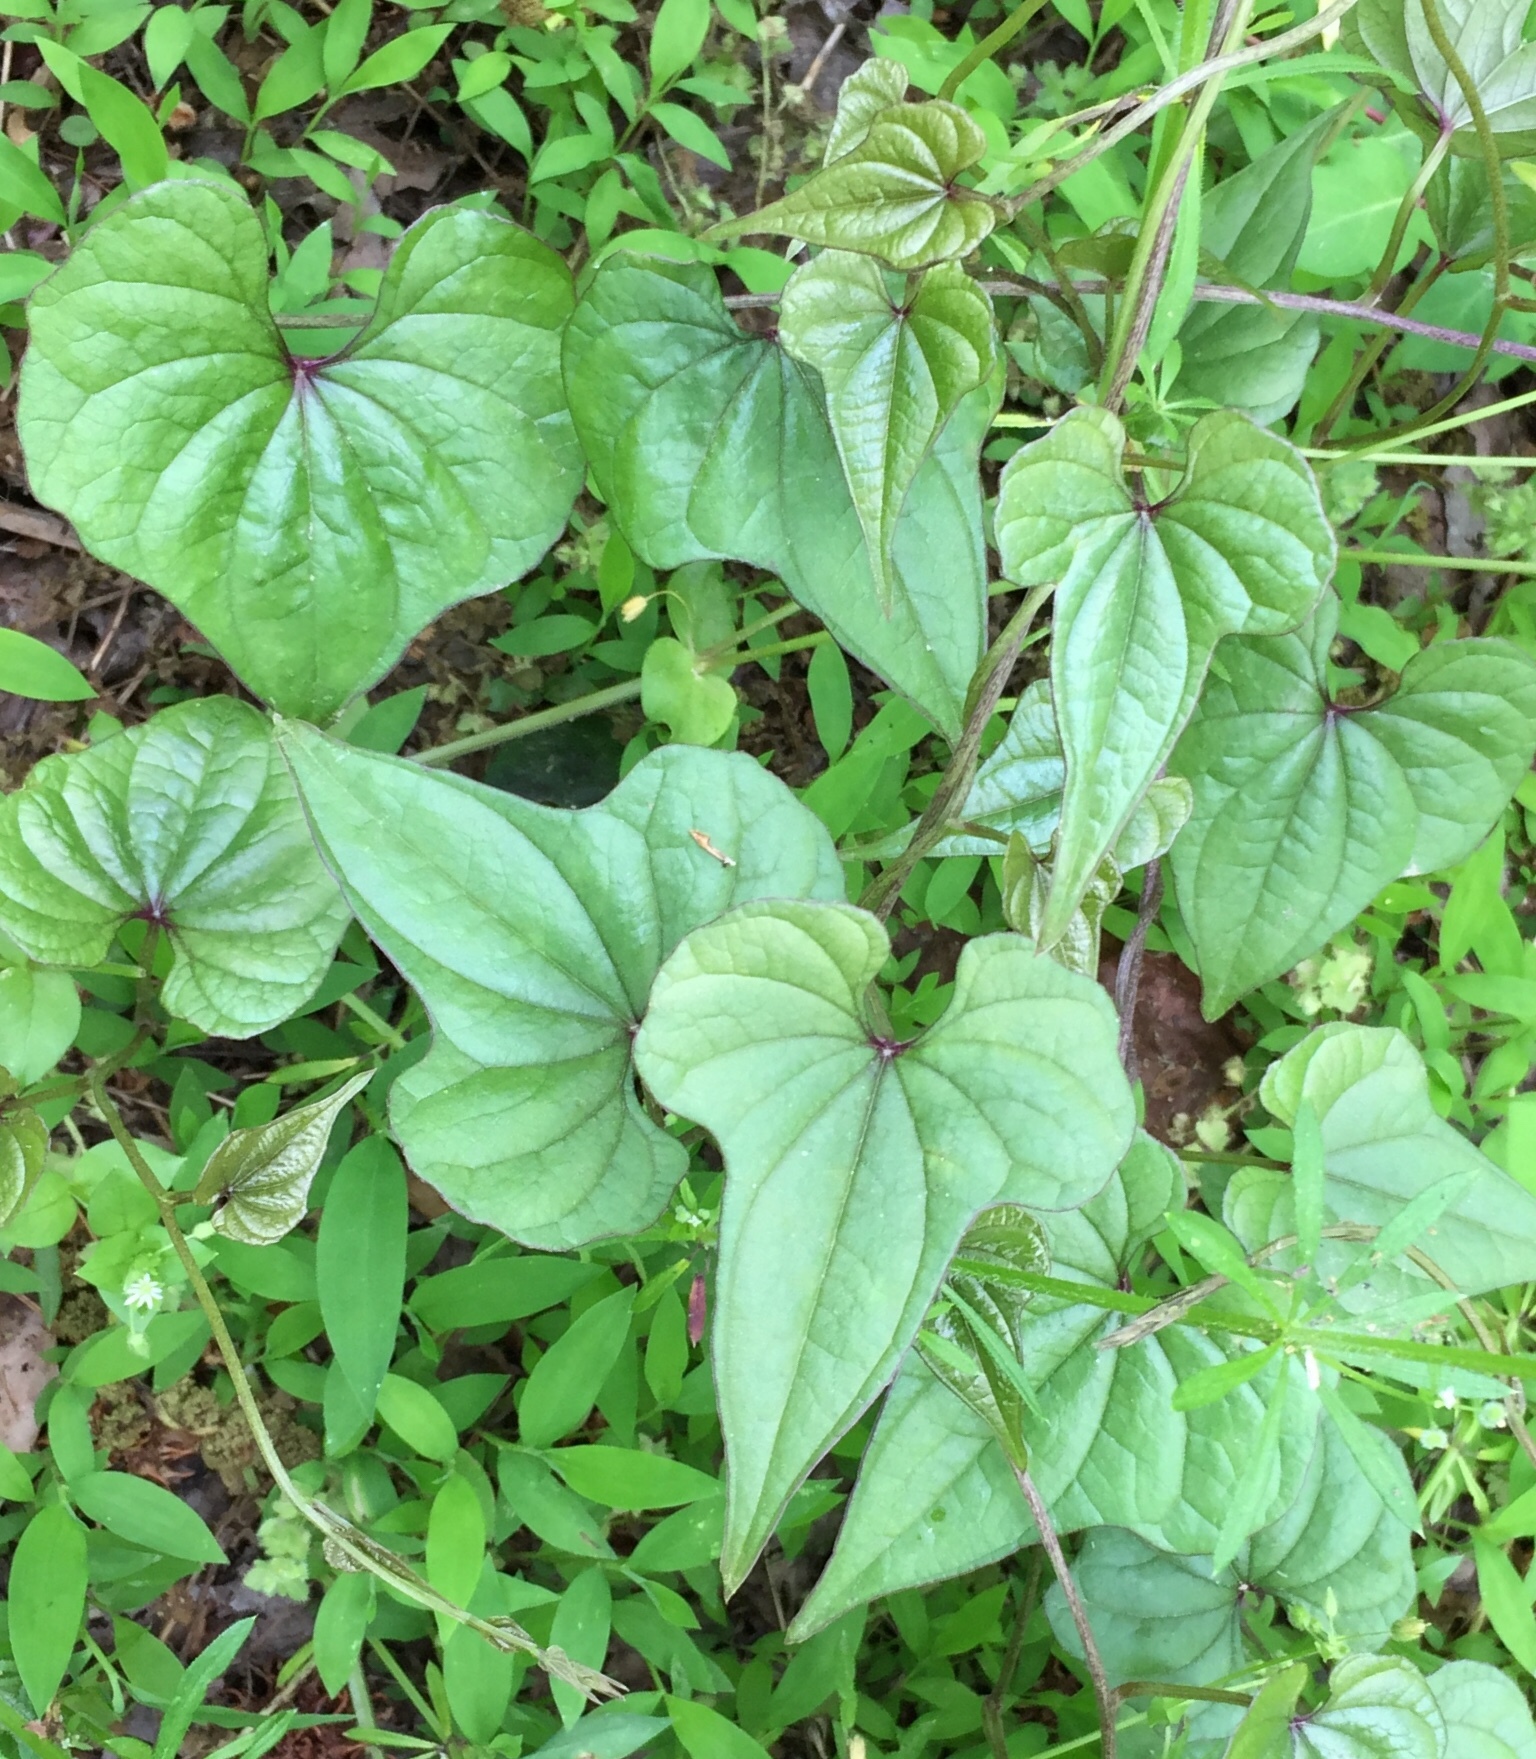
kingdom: Plantae
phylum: Tracheophyta
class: Liliopsida
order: Dioscoreales
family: Dioscoreaceae
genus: Dioscorea
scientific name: Dioscorea polystachya
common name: Chinese yam
